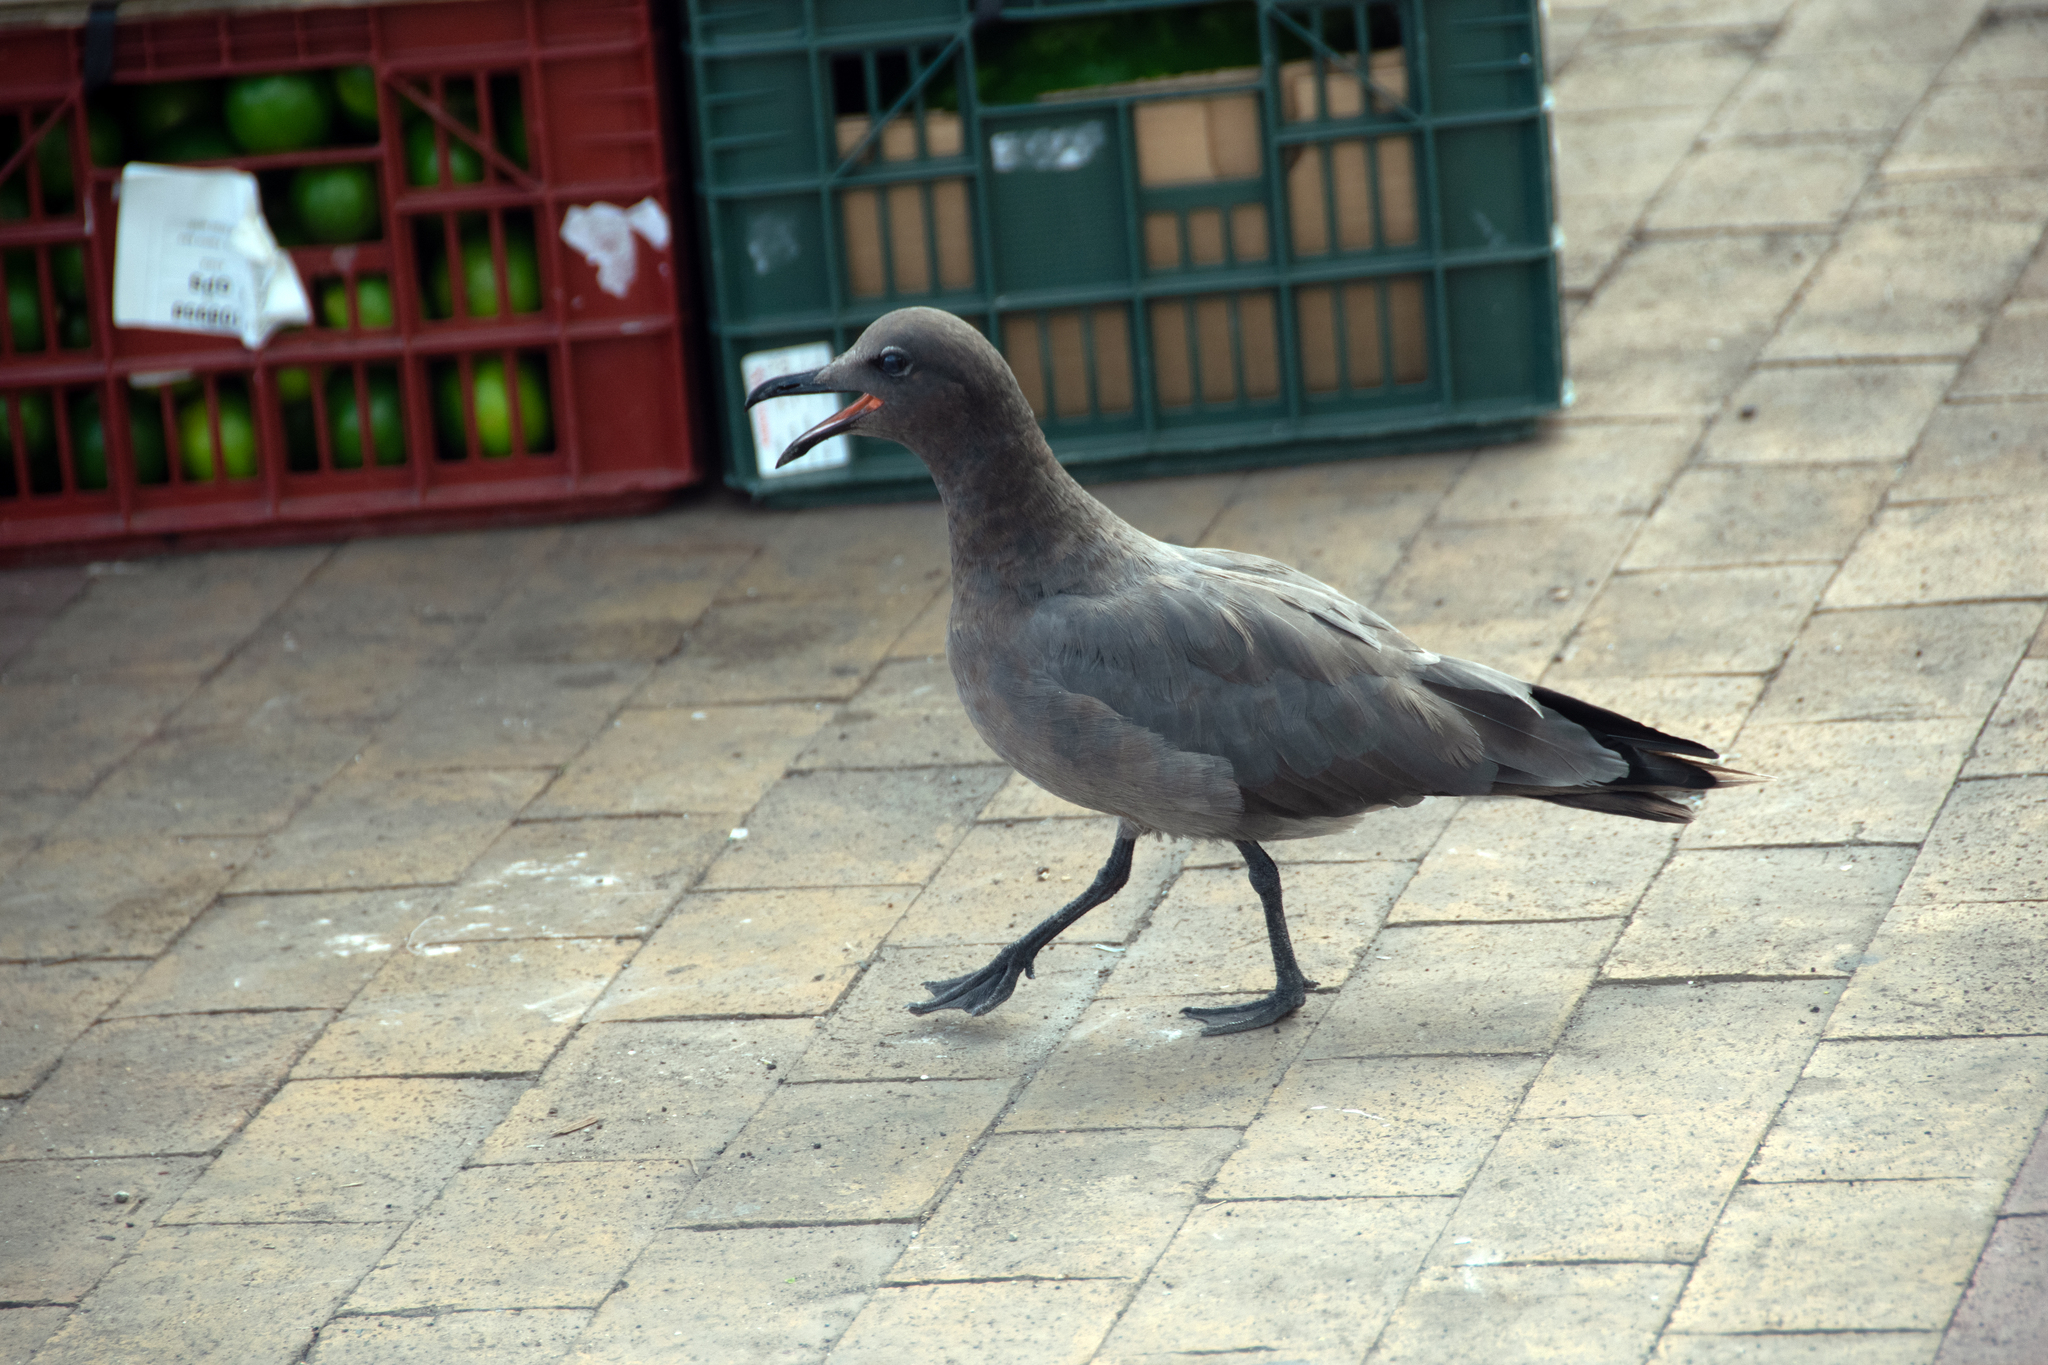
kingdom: Animalia
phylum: Chordata
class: Aves
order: Charadriiformes
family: Laridae
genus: Leucophaeus
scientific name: Leucophaeus fuliginosus
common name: Lava gull
